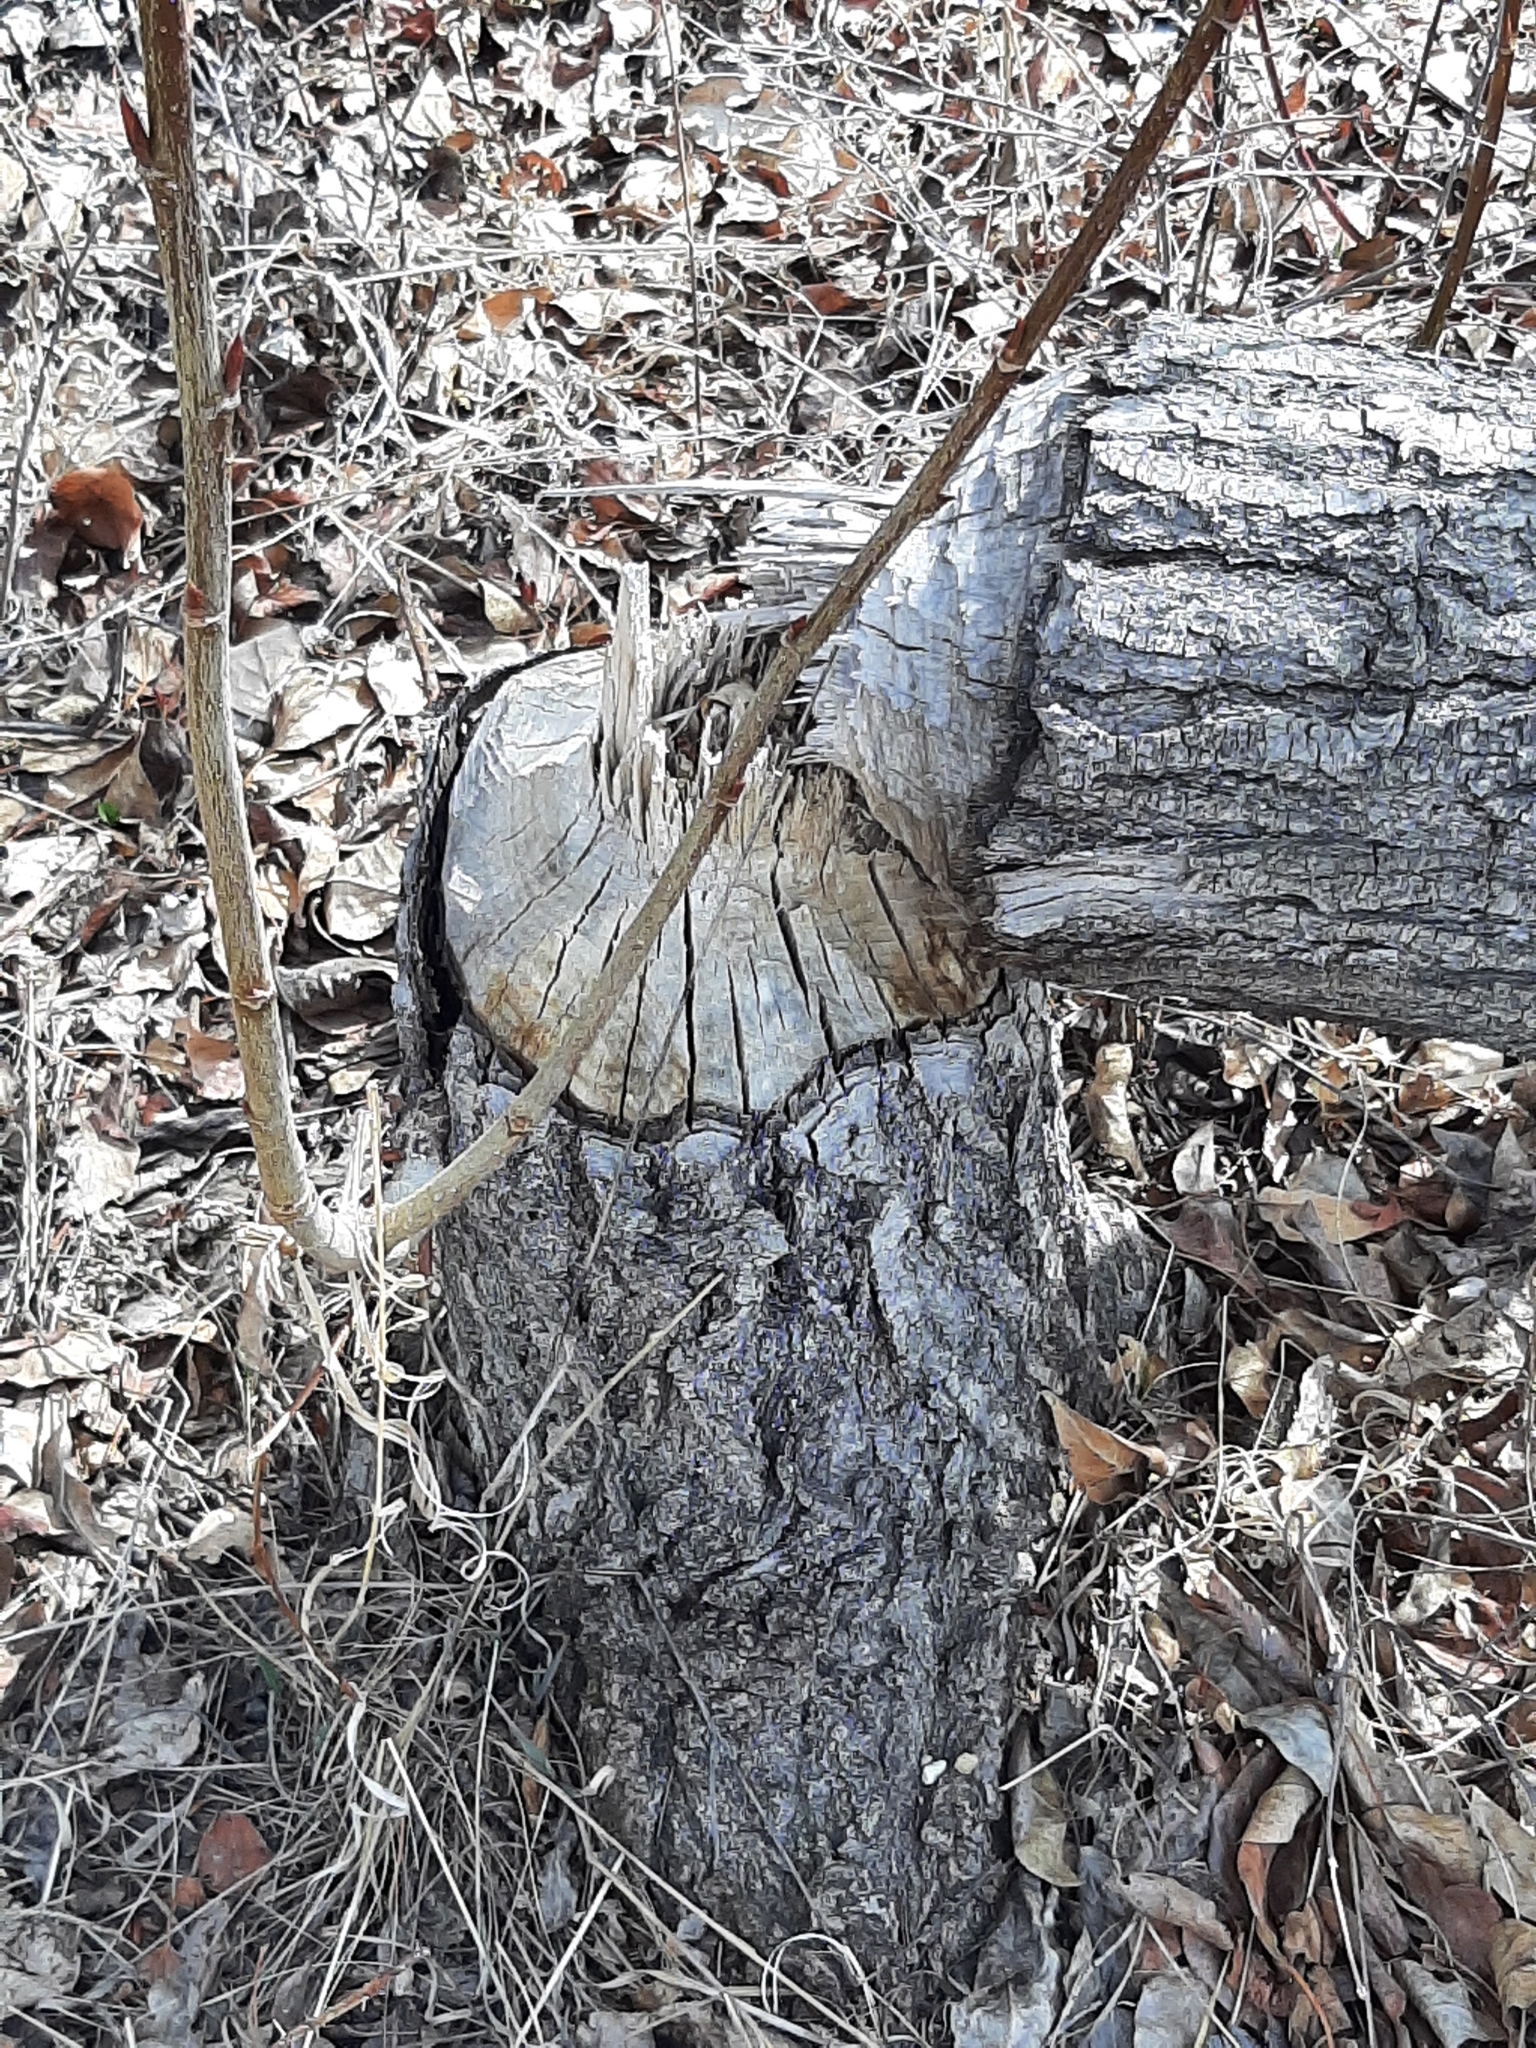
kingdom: Animalia
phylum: Chordata
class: Mammalia
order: Rodentia
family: Castoridae
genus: Castor
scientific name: Castor canadensis
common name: American beaver
